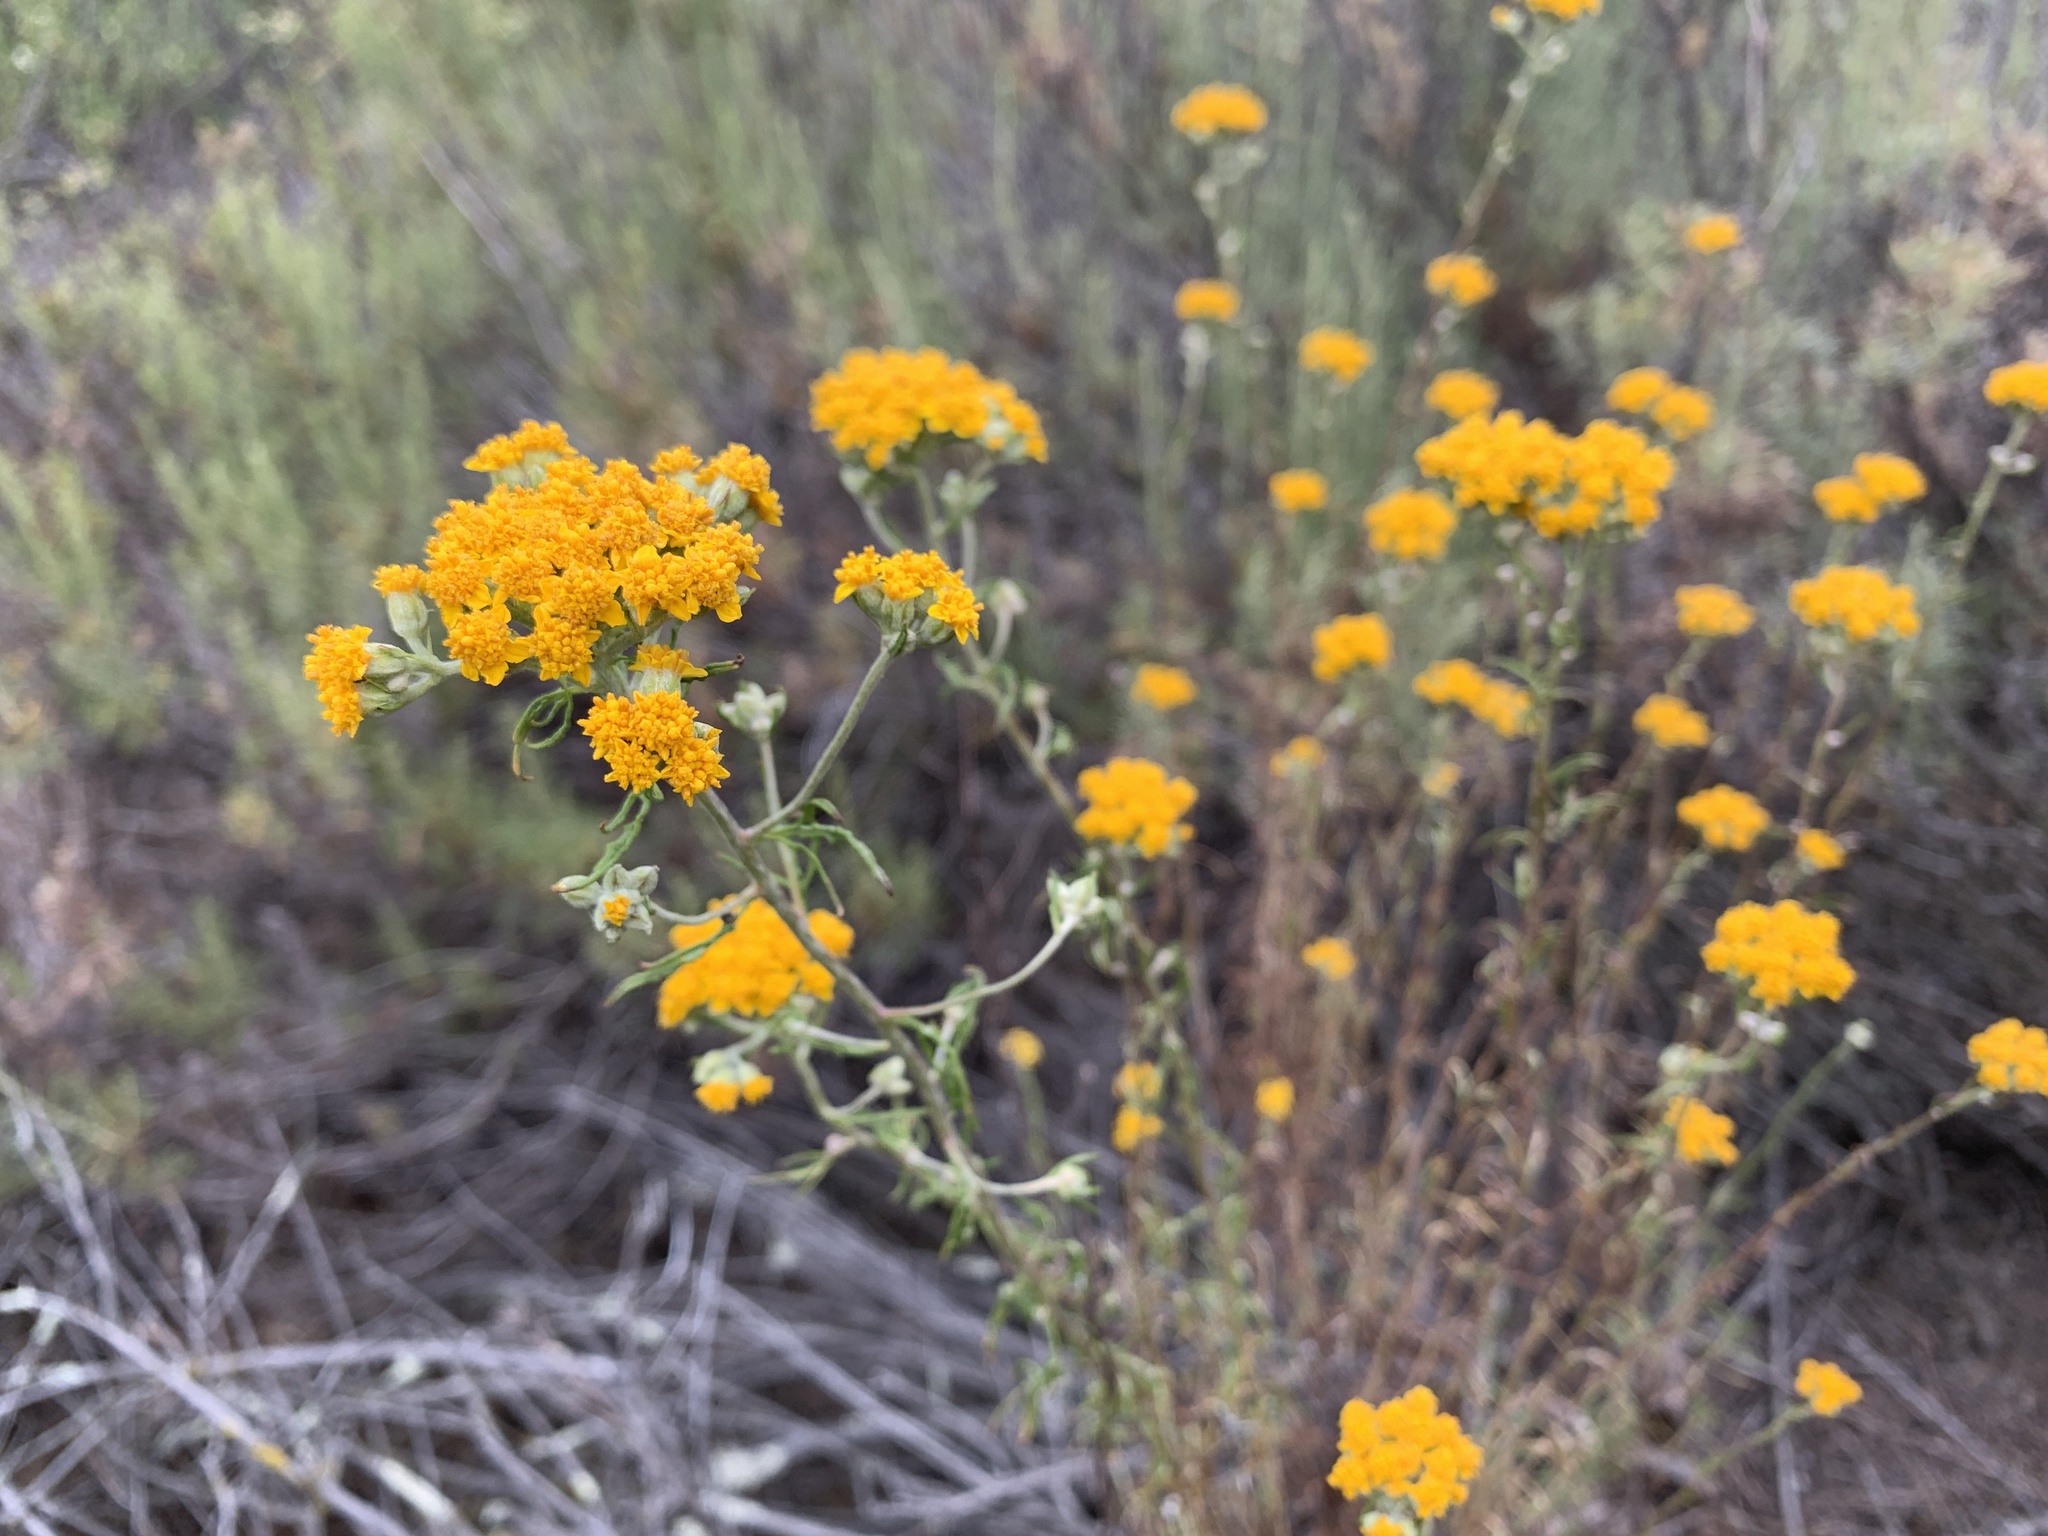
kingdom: Plantae
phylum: Tracheophyta
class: Magnoliopsida
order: Asterales
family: Asteraceae
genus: Eriophyllum
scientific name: Eriophyllum confertiflorum
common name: Golden-yarrow
